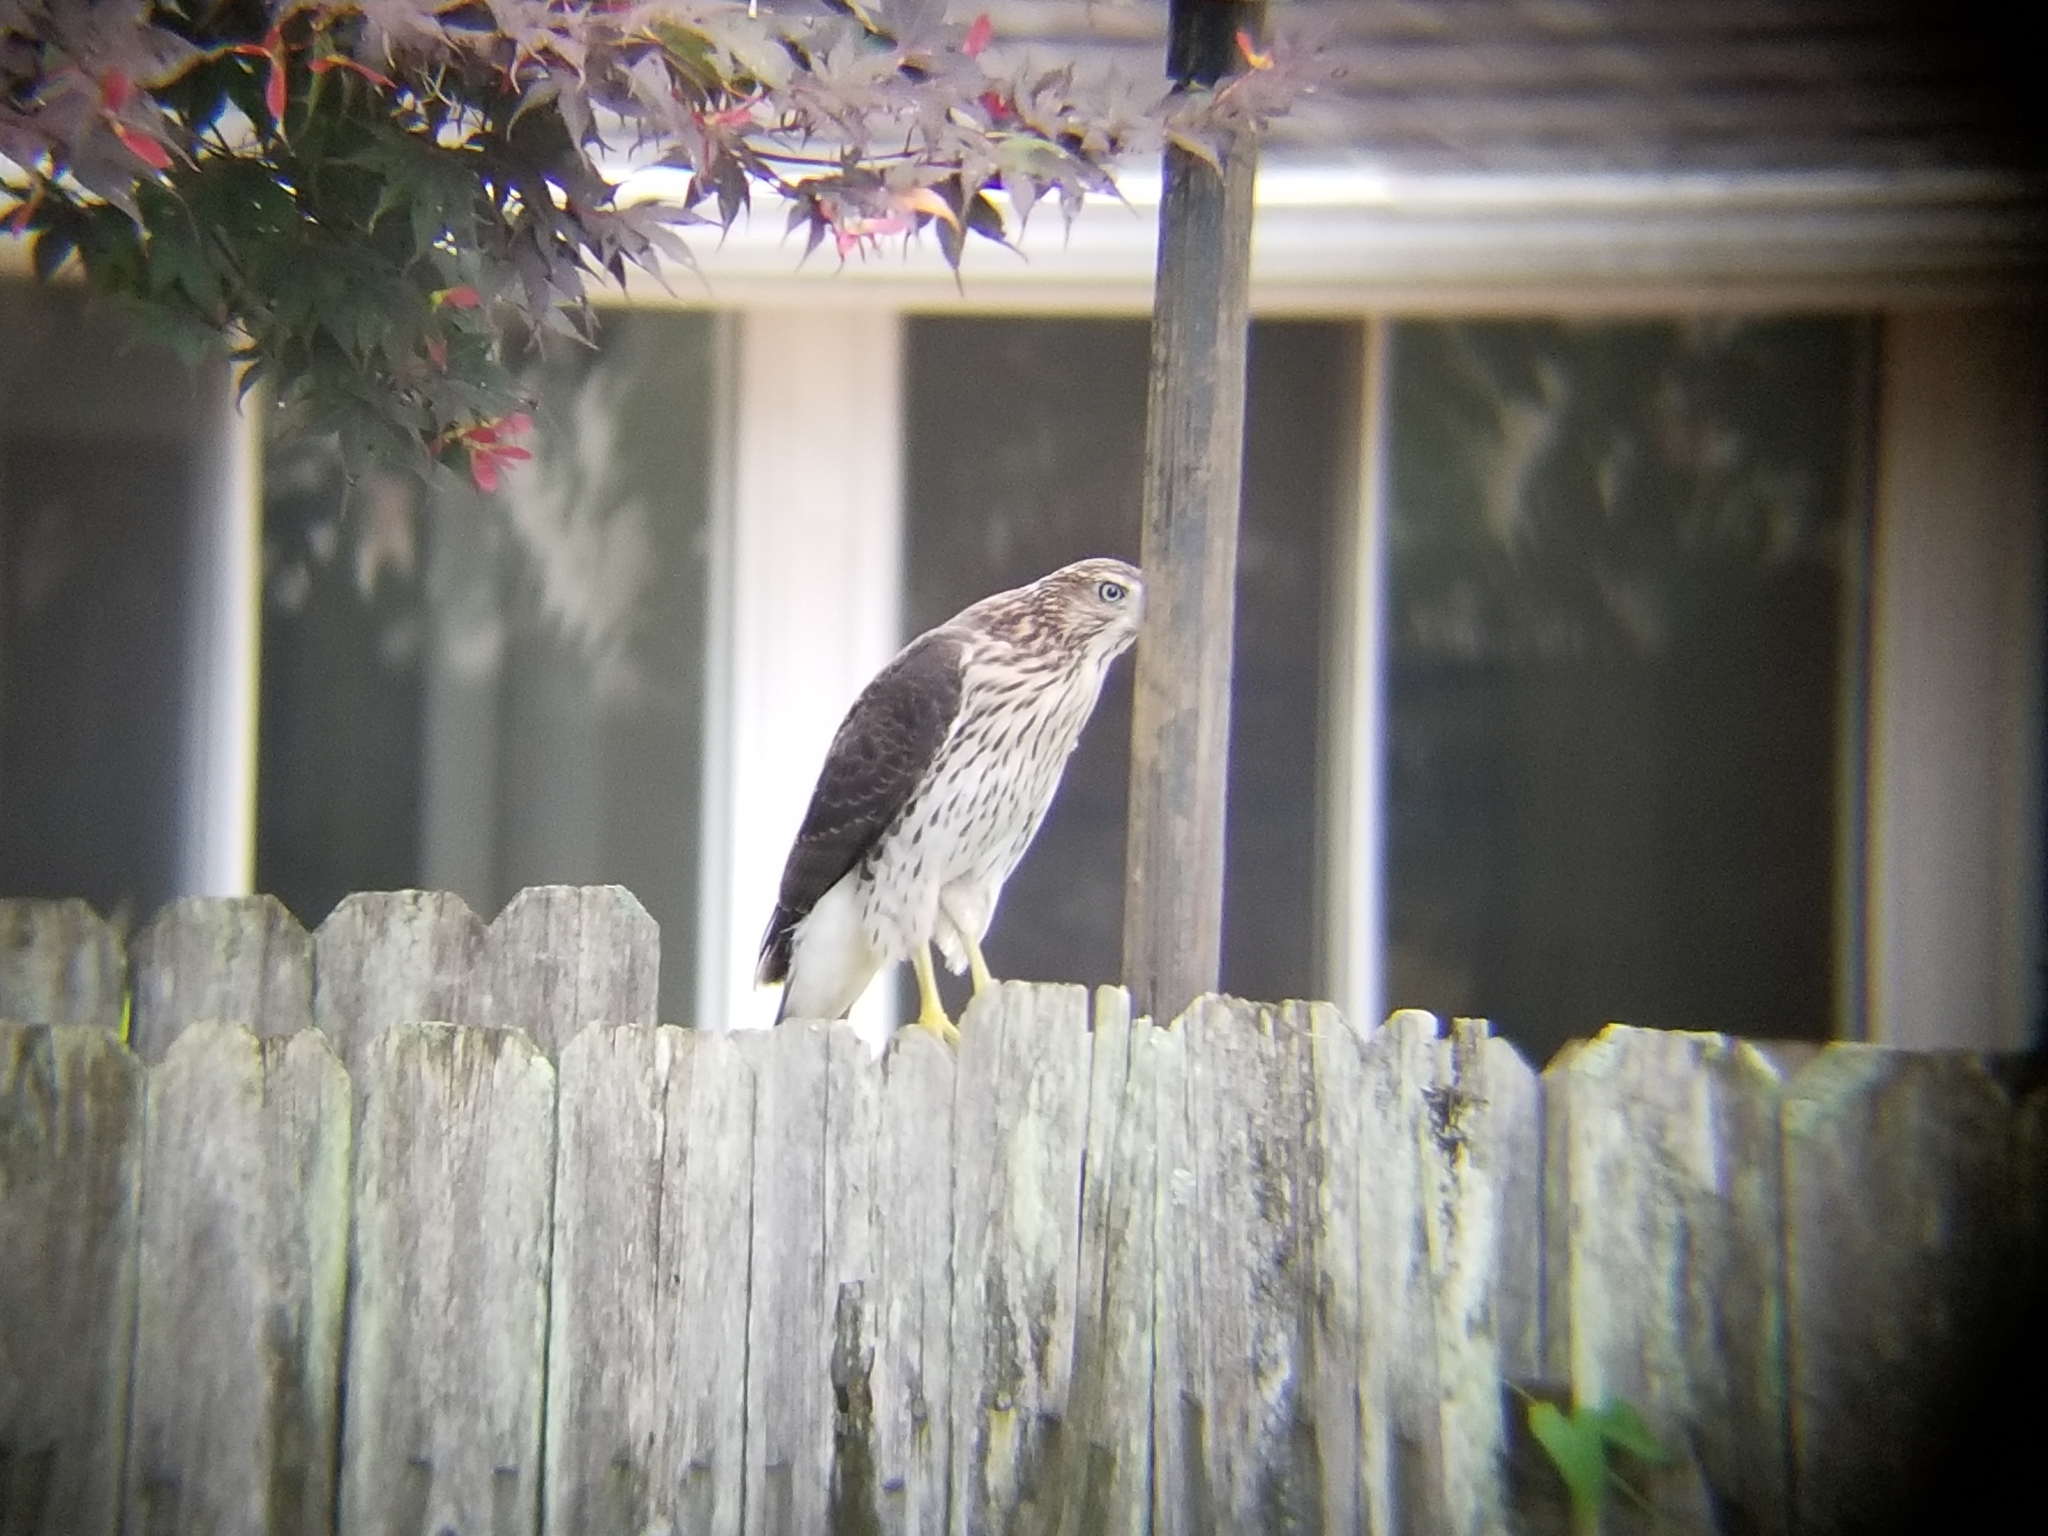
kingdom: Animalia
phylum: Chordata
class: Aves
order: Accipitriformes
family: Accipitridae
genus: Accipiter
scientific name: Accipiter cooperii
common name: Cooper's hawk
